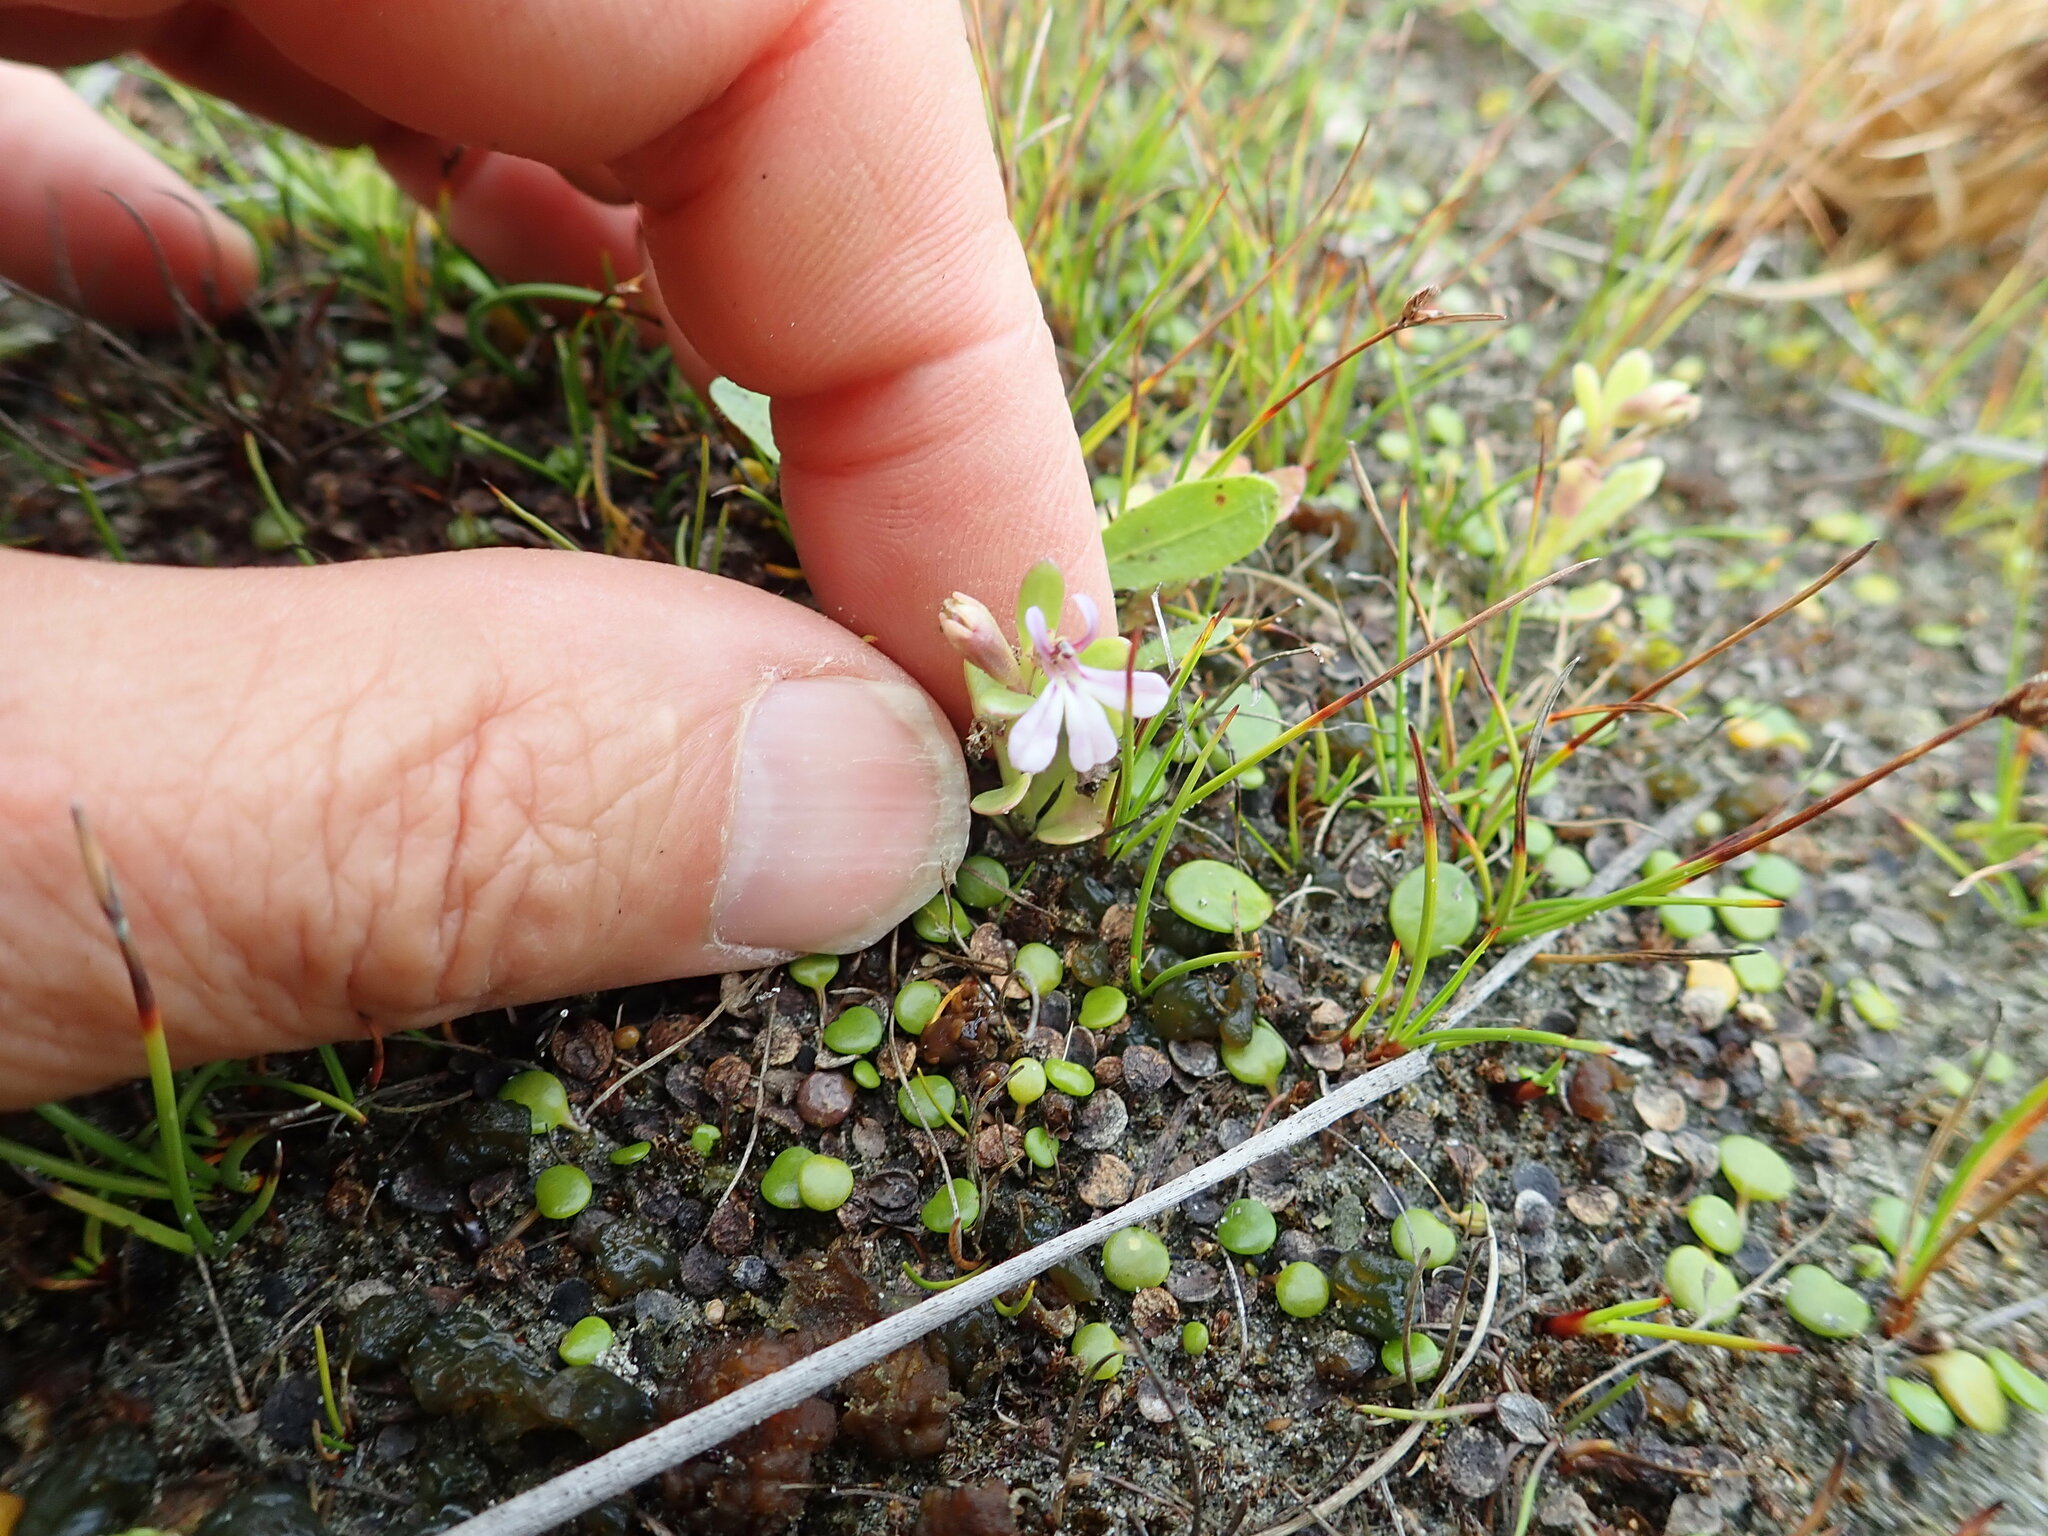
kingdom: Plantae
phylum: Tracheophyta
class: Magnoliopsida
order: Asterales
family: Campanulaceae
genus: Lobelia
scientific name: Lobelia anceps
